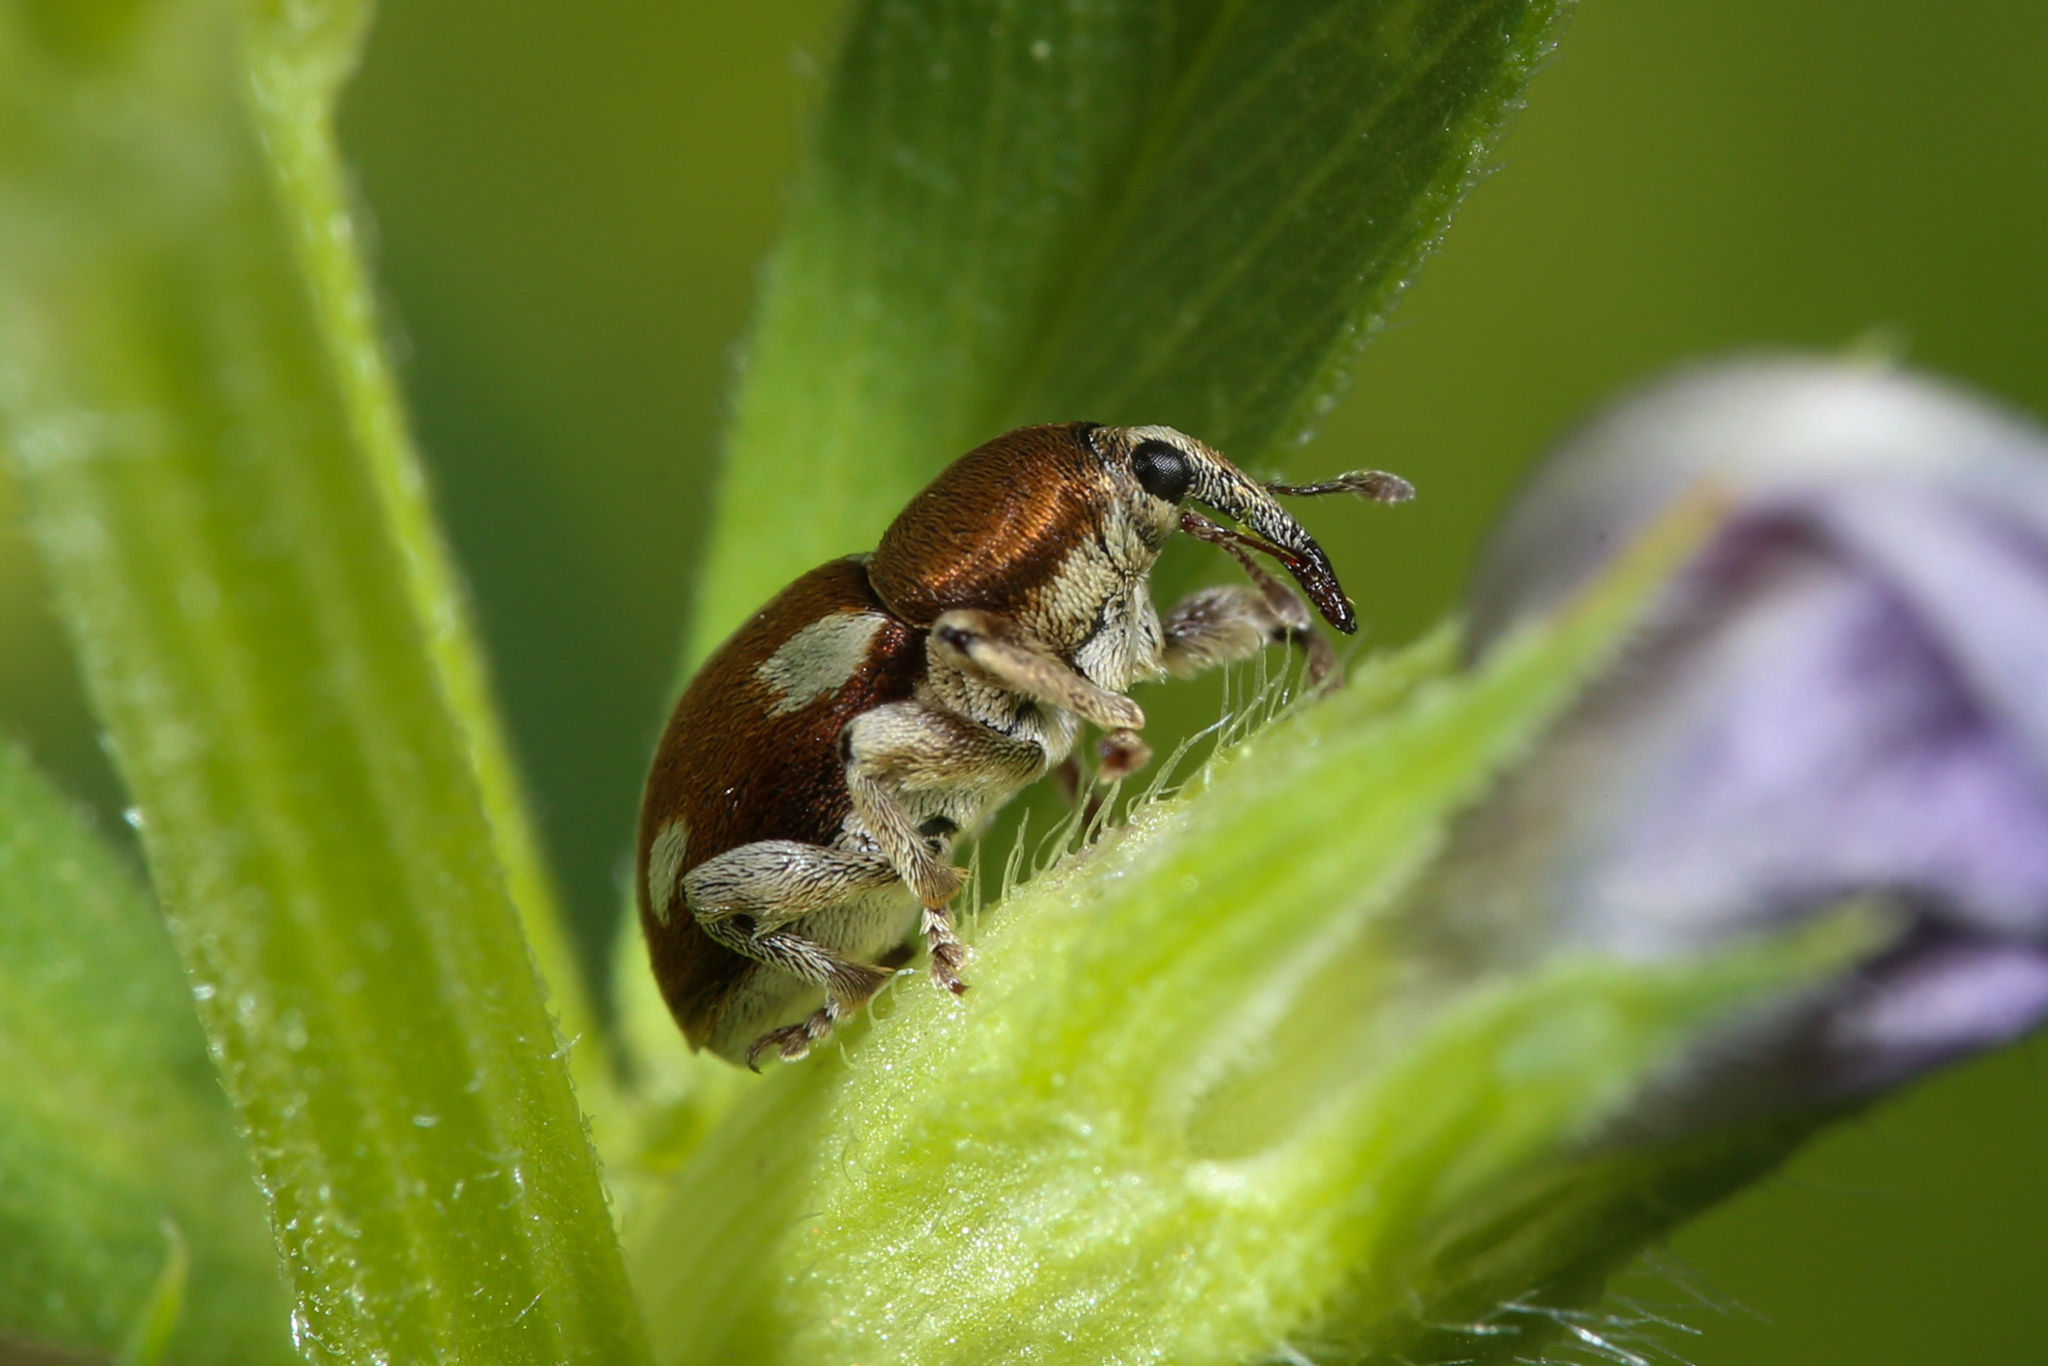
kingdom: Animalia
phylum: Arthropoda
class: Insecta
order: Coleoptera
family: Curculionidae
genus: Tychius
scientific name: Tychius quinquepunctatus
